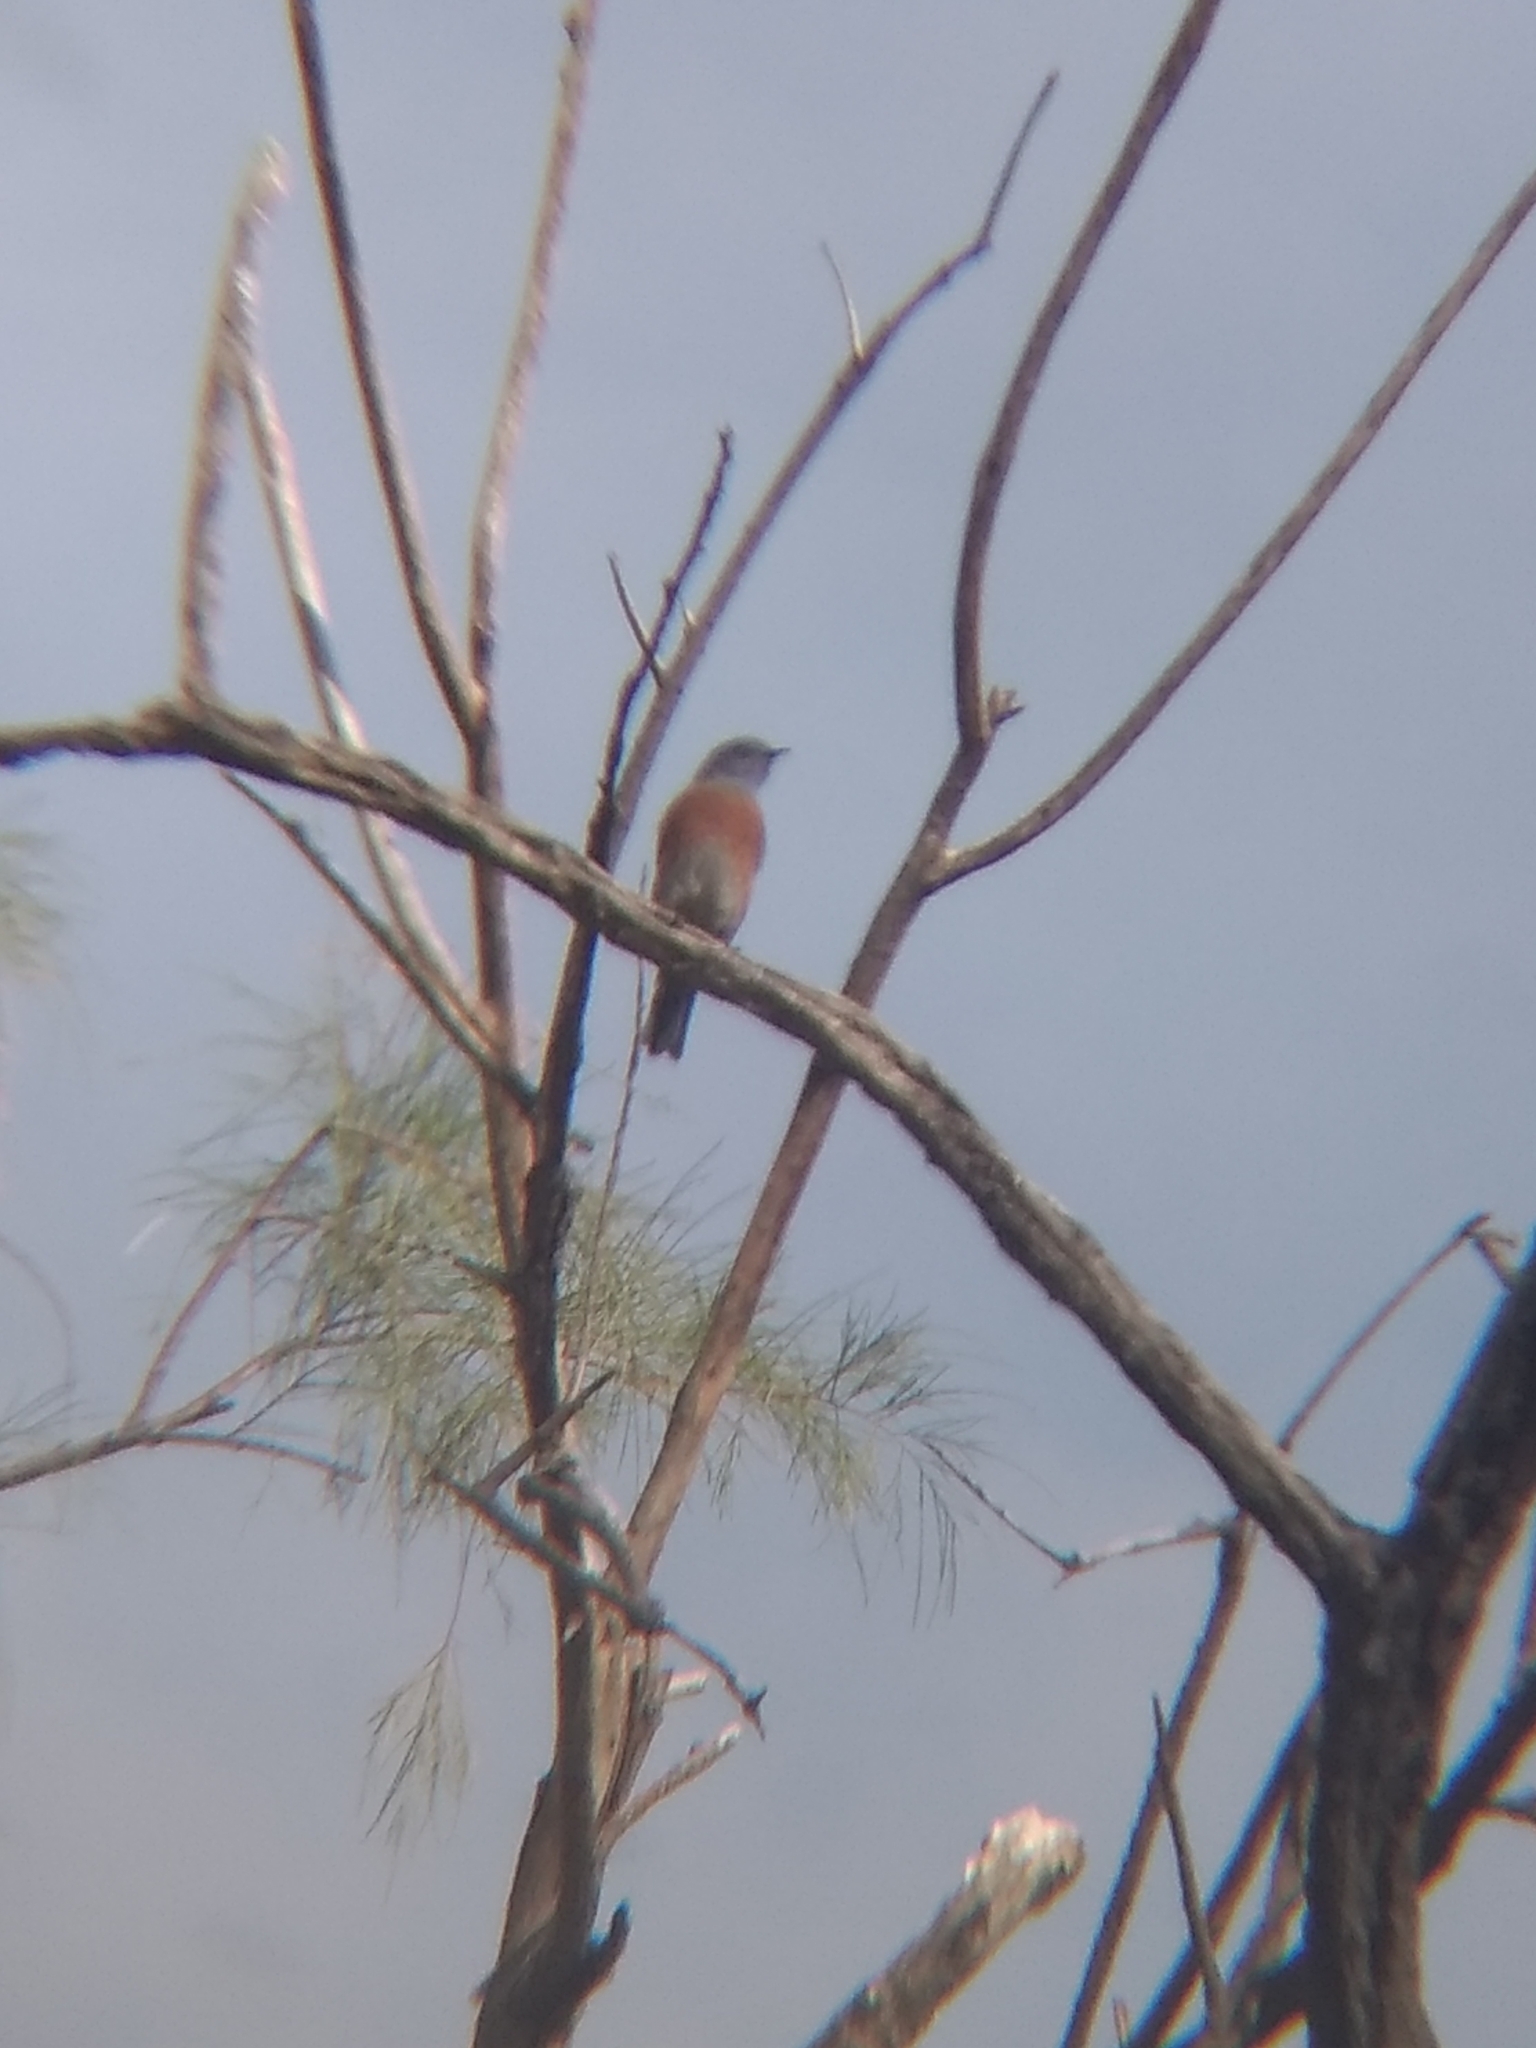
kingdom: Animalia
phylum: Chordata
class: Aves
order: Passeriformes
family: Turdidae
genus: Sialia
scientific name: Sialia mexicana
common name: Western bluebird
